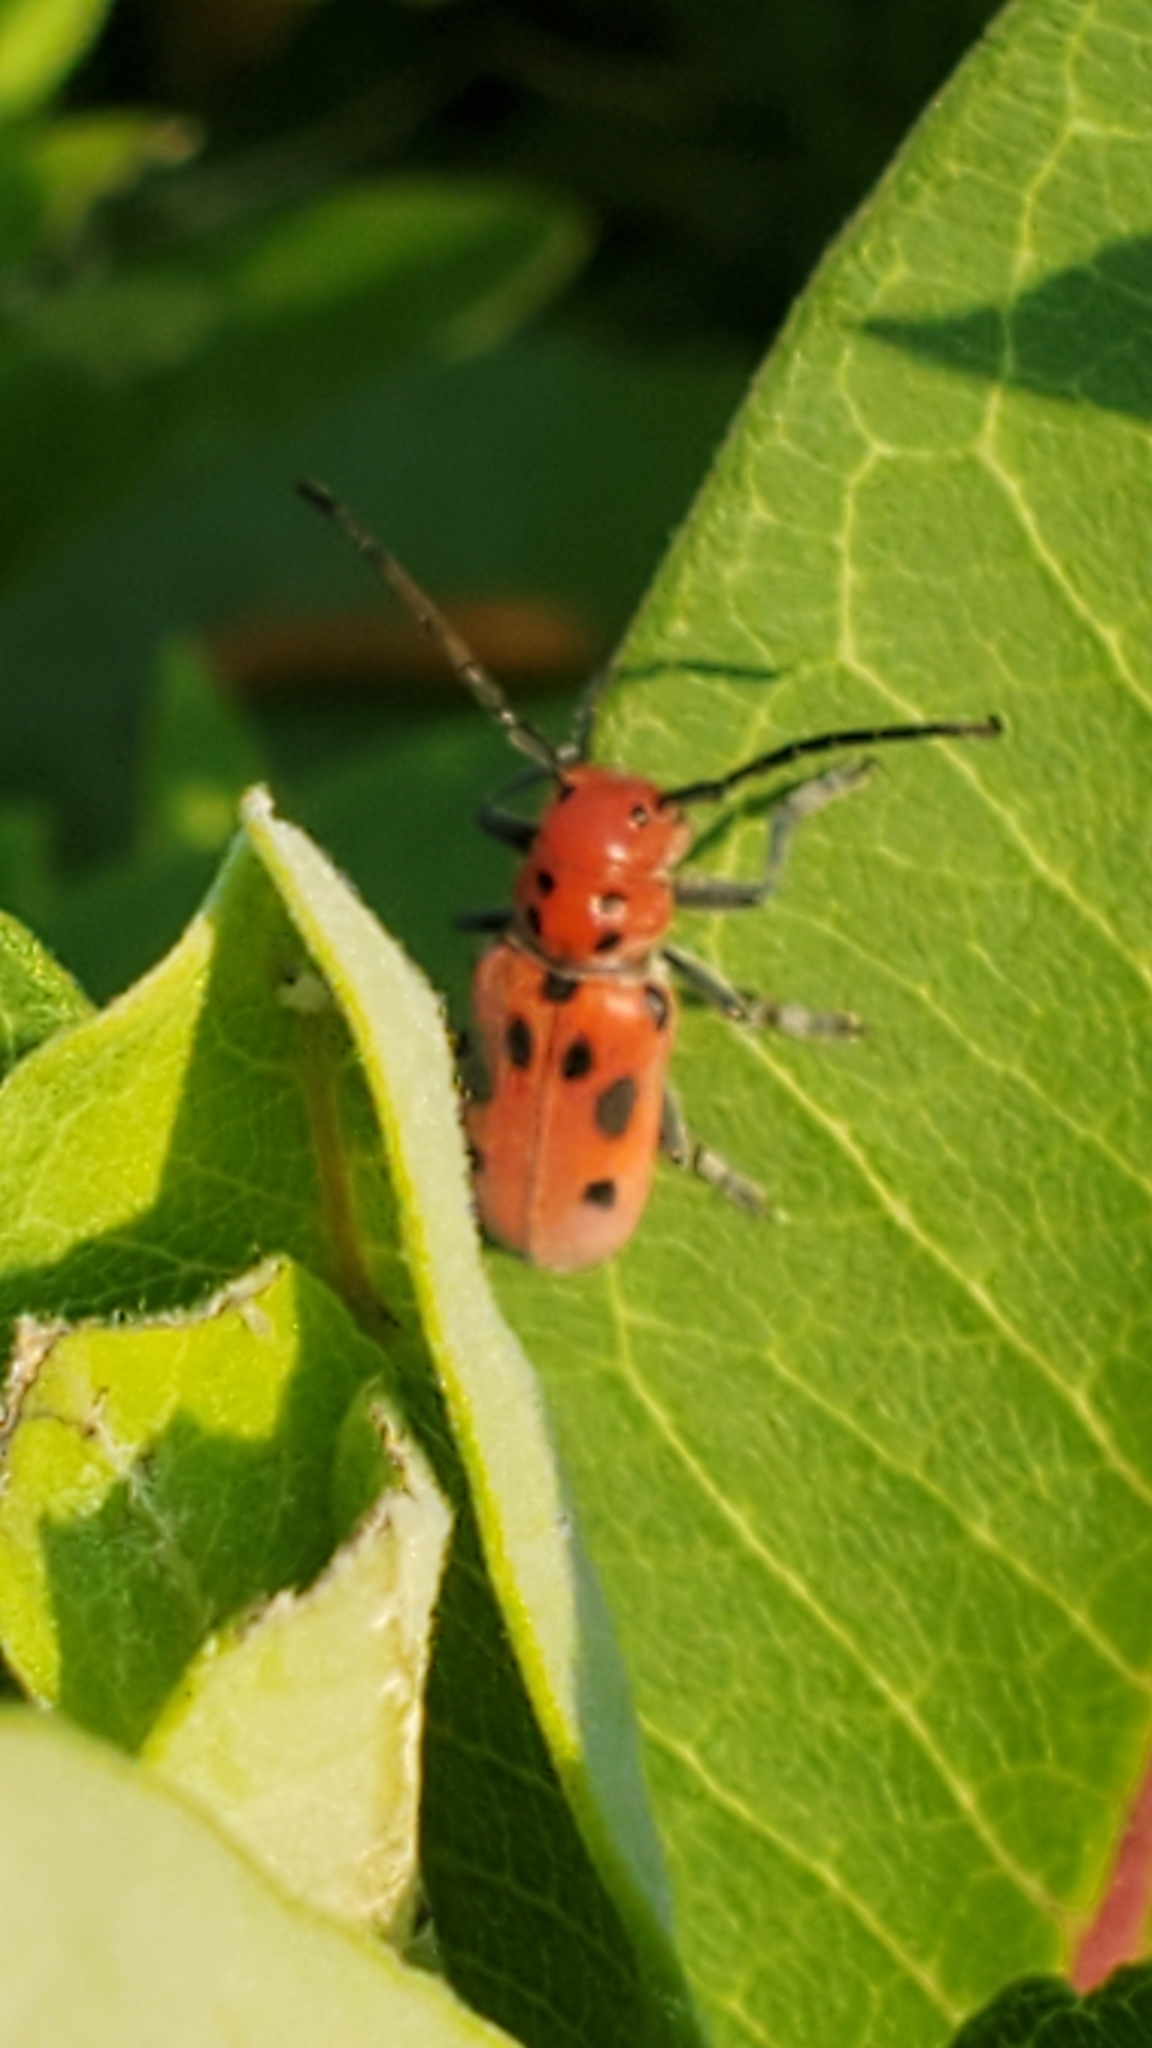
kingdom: Animalia
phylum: Arthropoda
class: Insecta
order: Coleoptera
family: Cerambycidae
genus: Tetraopes
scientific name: Tetraopes tetrophthalmus
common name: Red milkweed beetle
